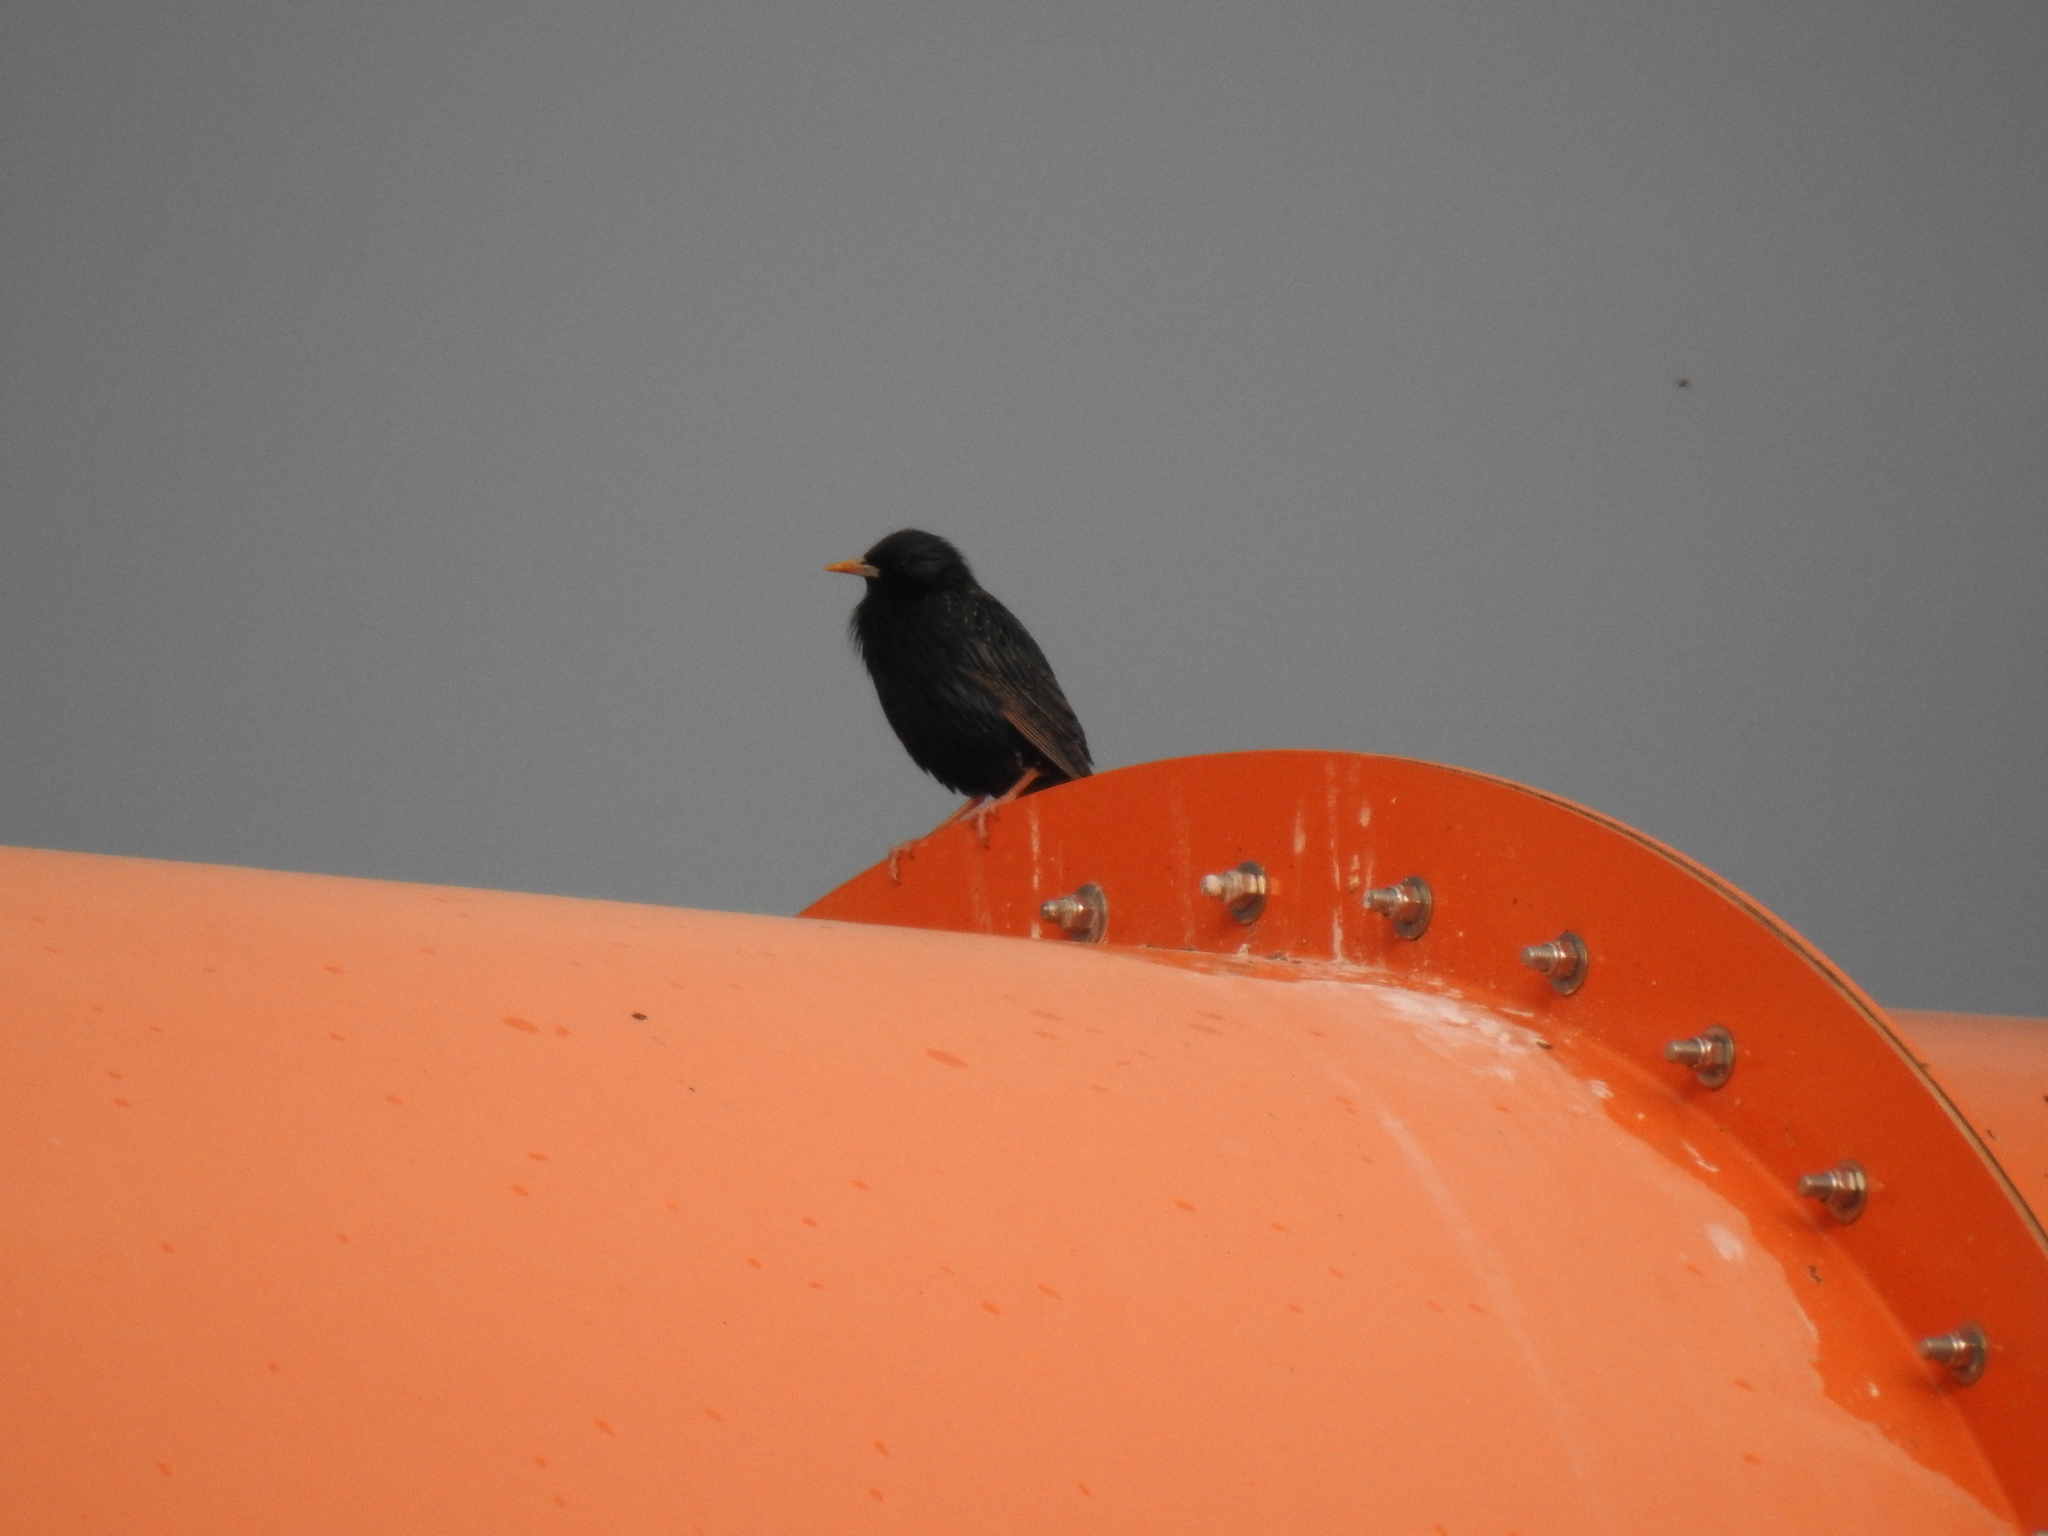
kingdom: Animalia
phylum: Chordata
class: Aves
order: Passeriformes
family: Sturnidae
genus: Sturnus
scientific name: Sturnus vulgaris
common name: Common starling
